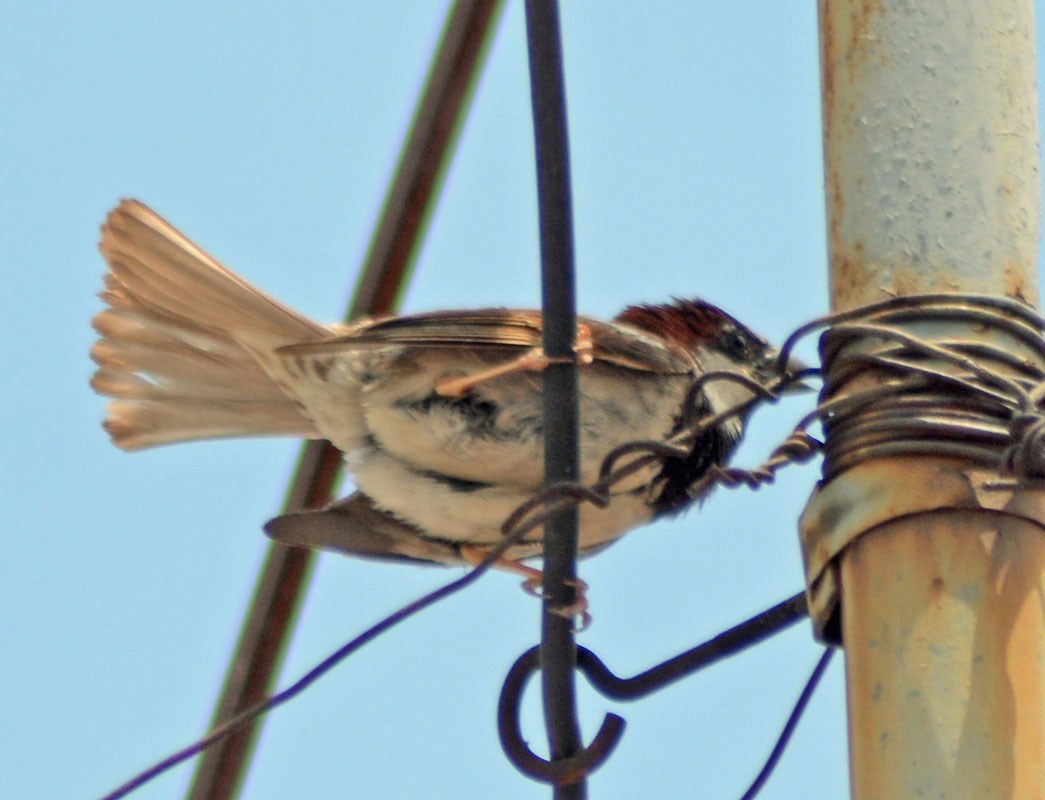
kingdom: Animalia
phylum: Chordata
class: Aves
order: Passeriformes
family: Passeridae
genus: Passer
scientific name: Passer domesticus
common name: House sparrow
